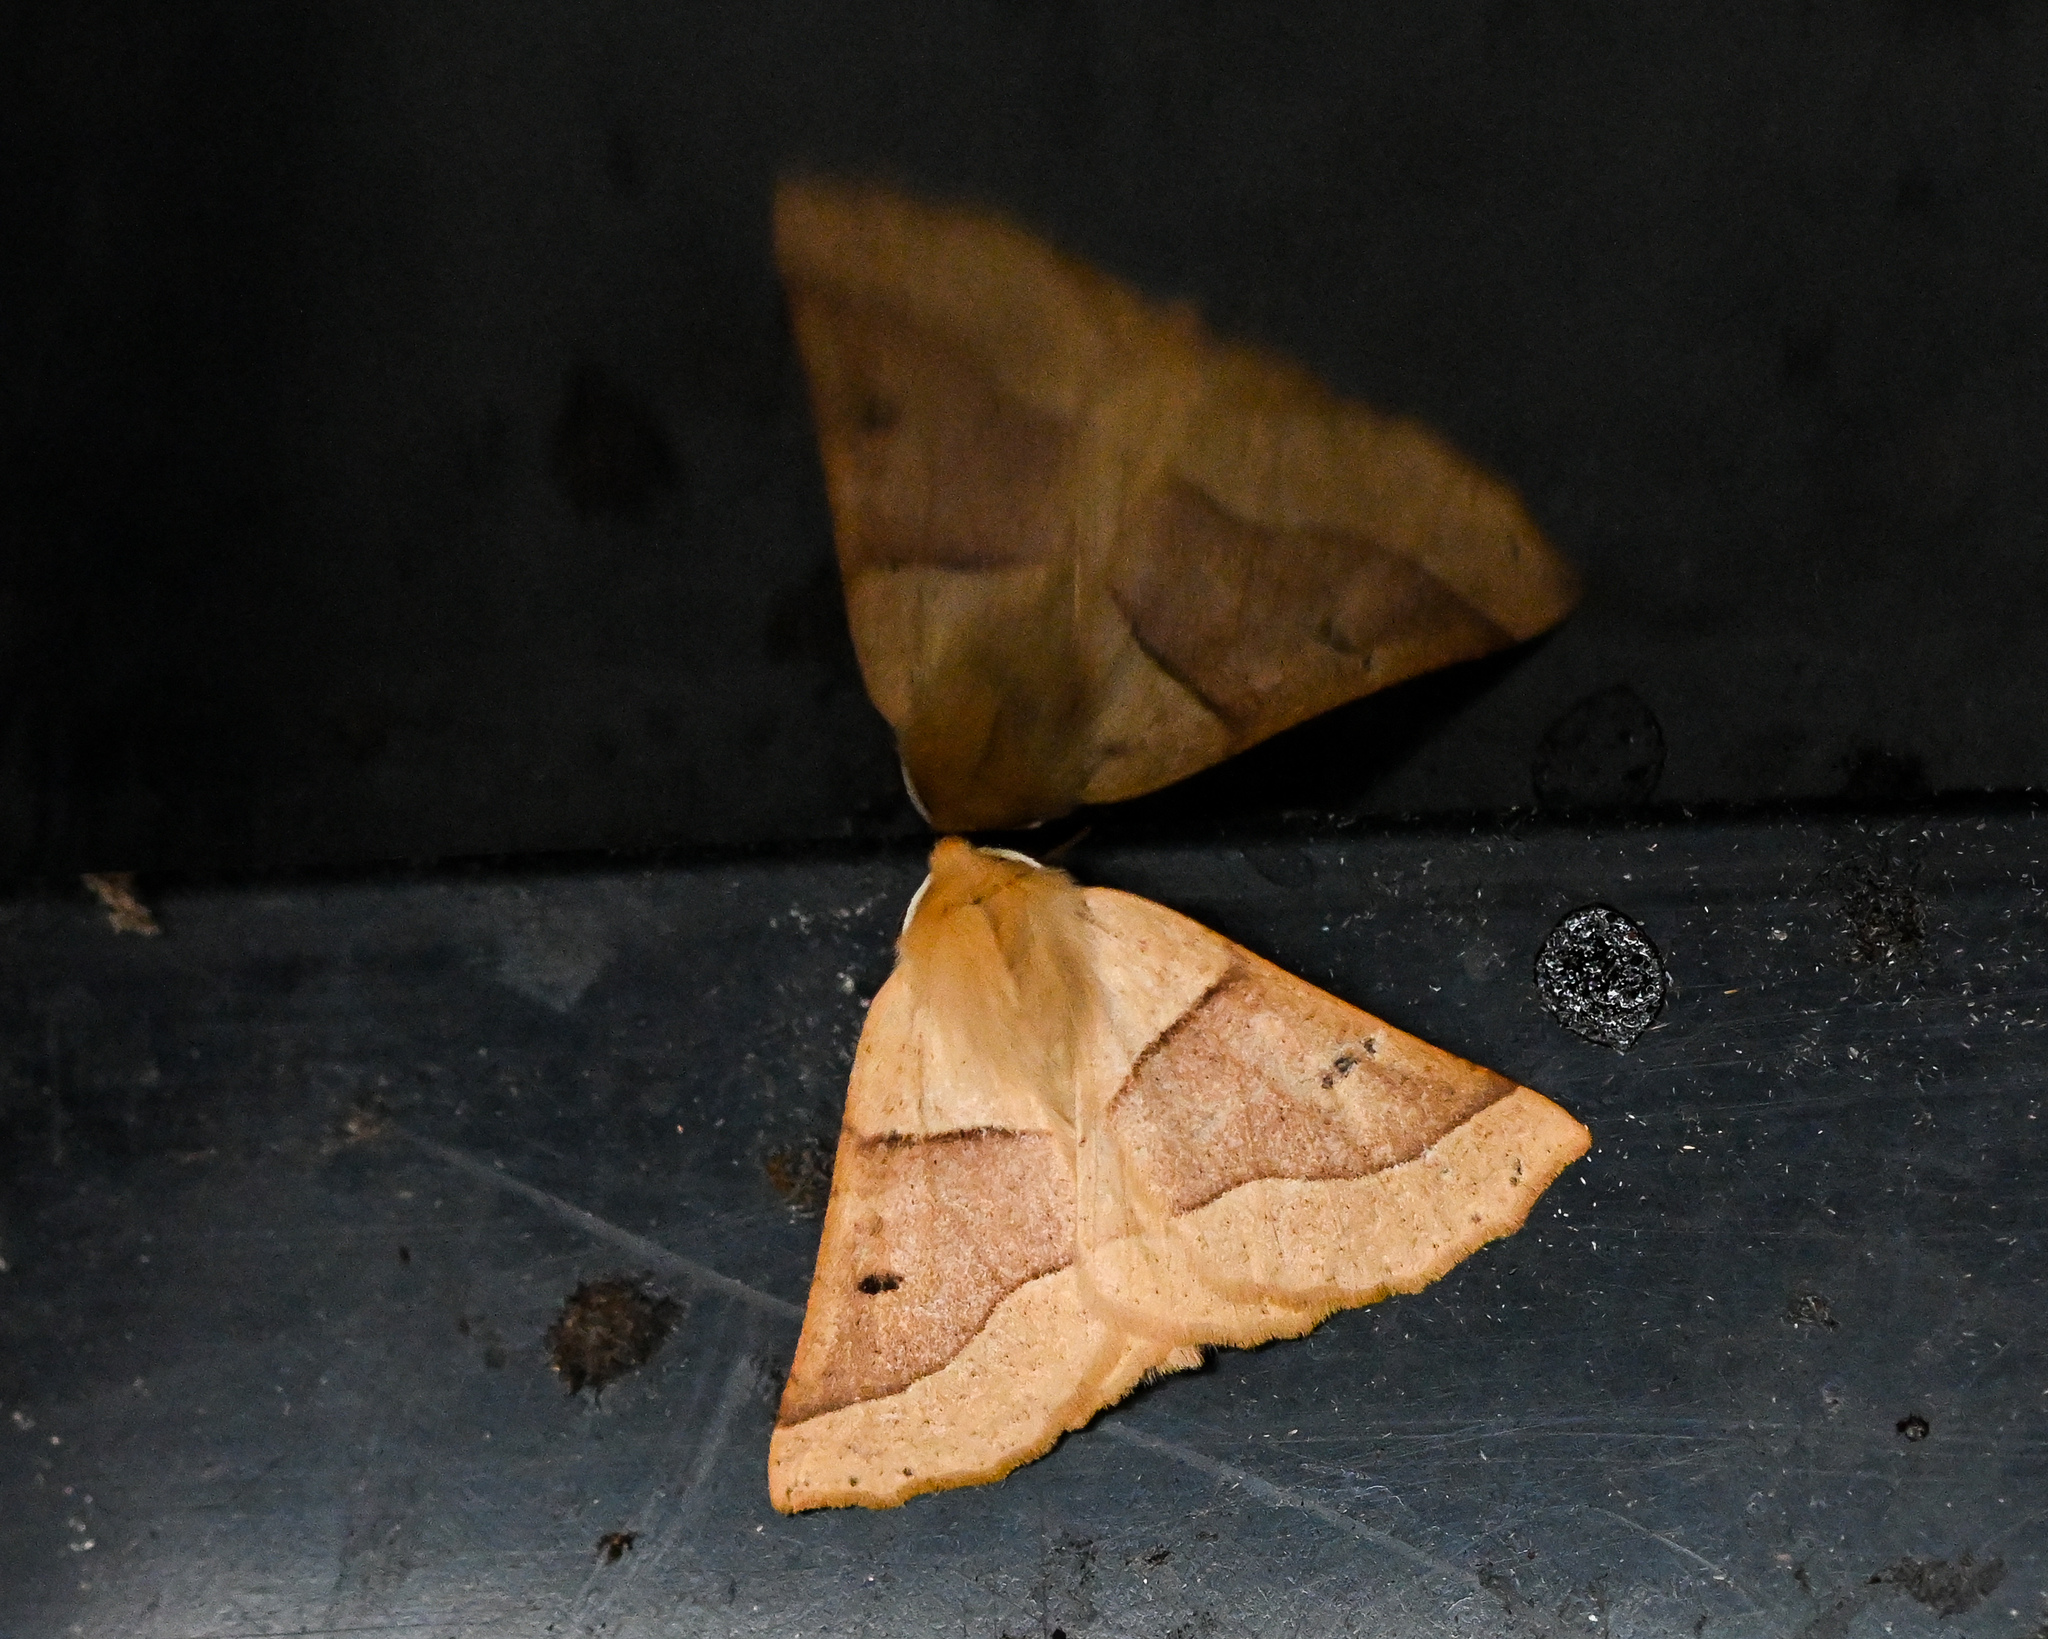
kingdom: Animalia
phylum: Arthropoda
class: Insecta
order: Lepidoptera
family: Geometridae
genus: Crocallis
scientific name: Crocallis elinguaria
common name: Scalloped oak
